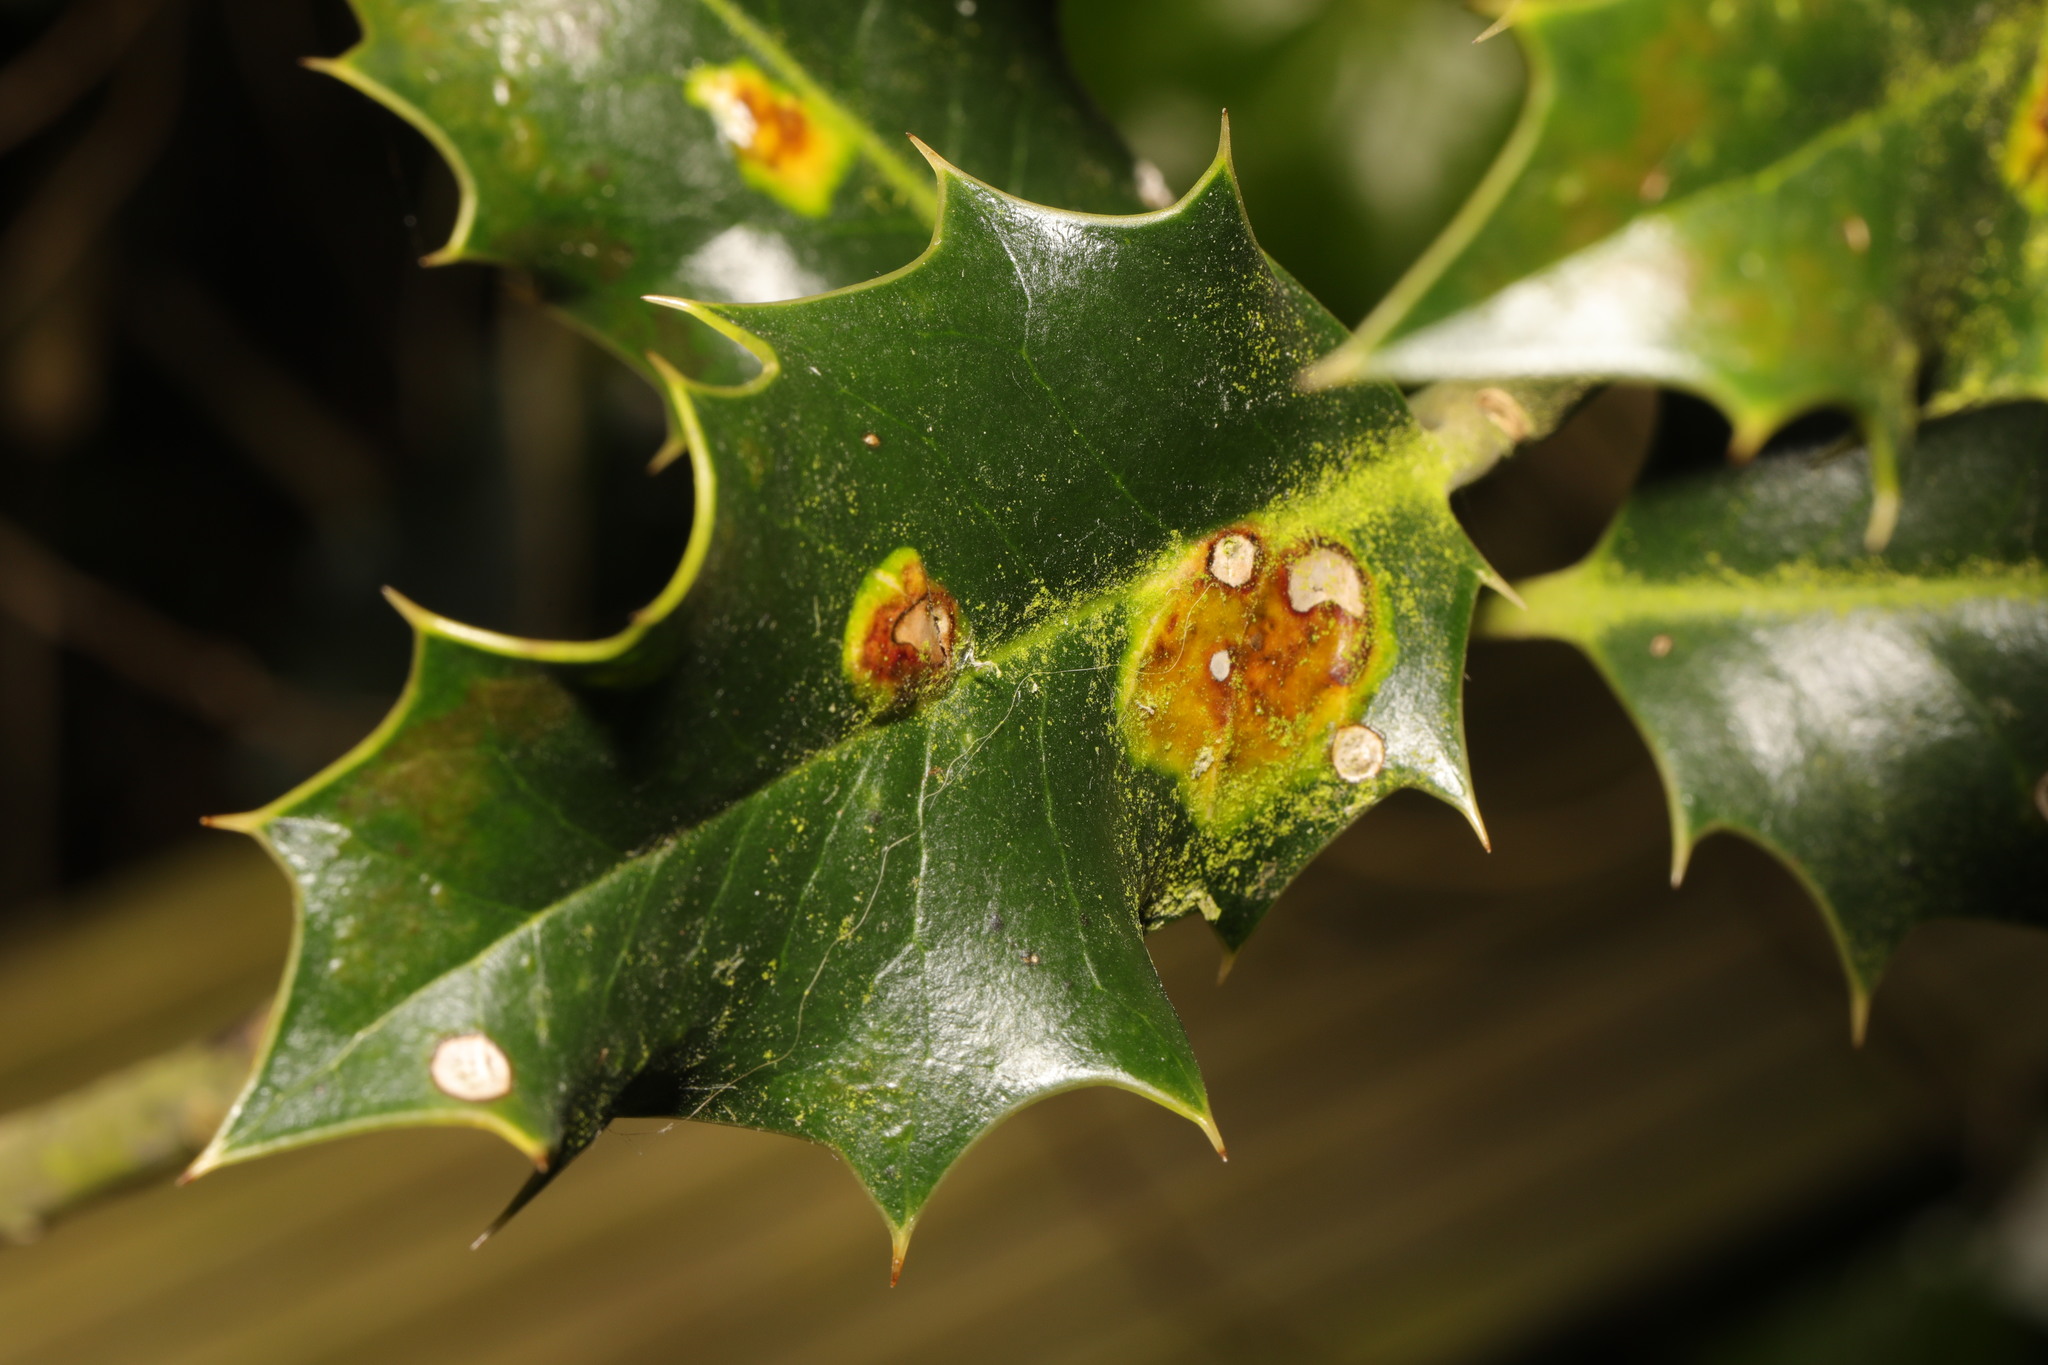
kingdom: Animalia
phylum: Arthropoda
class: Insecta
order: Diptera
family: Agromyzidae
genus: Phytomyza
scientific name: Phytomyza ilicis
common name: Holly leafminer
